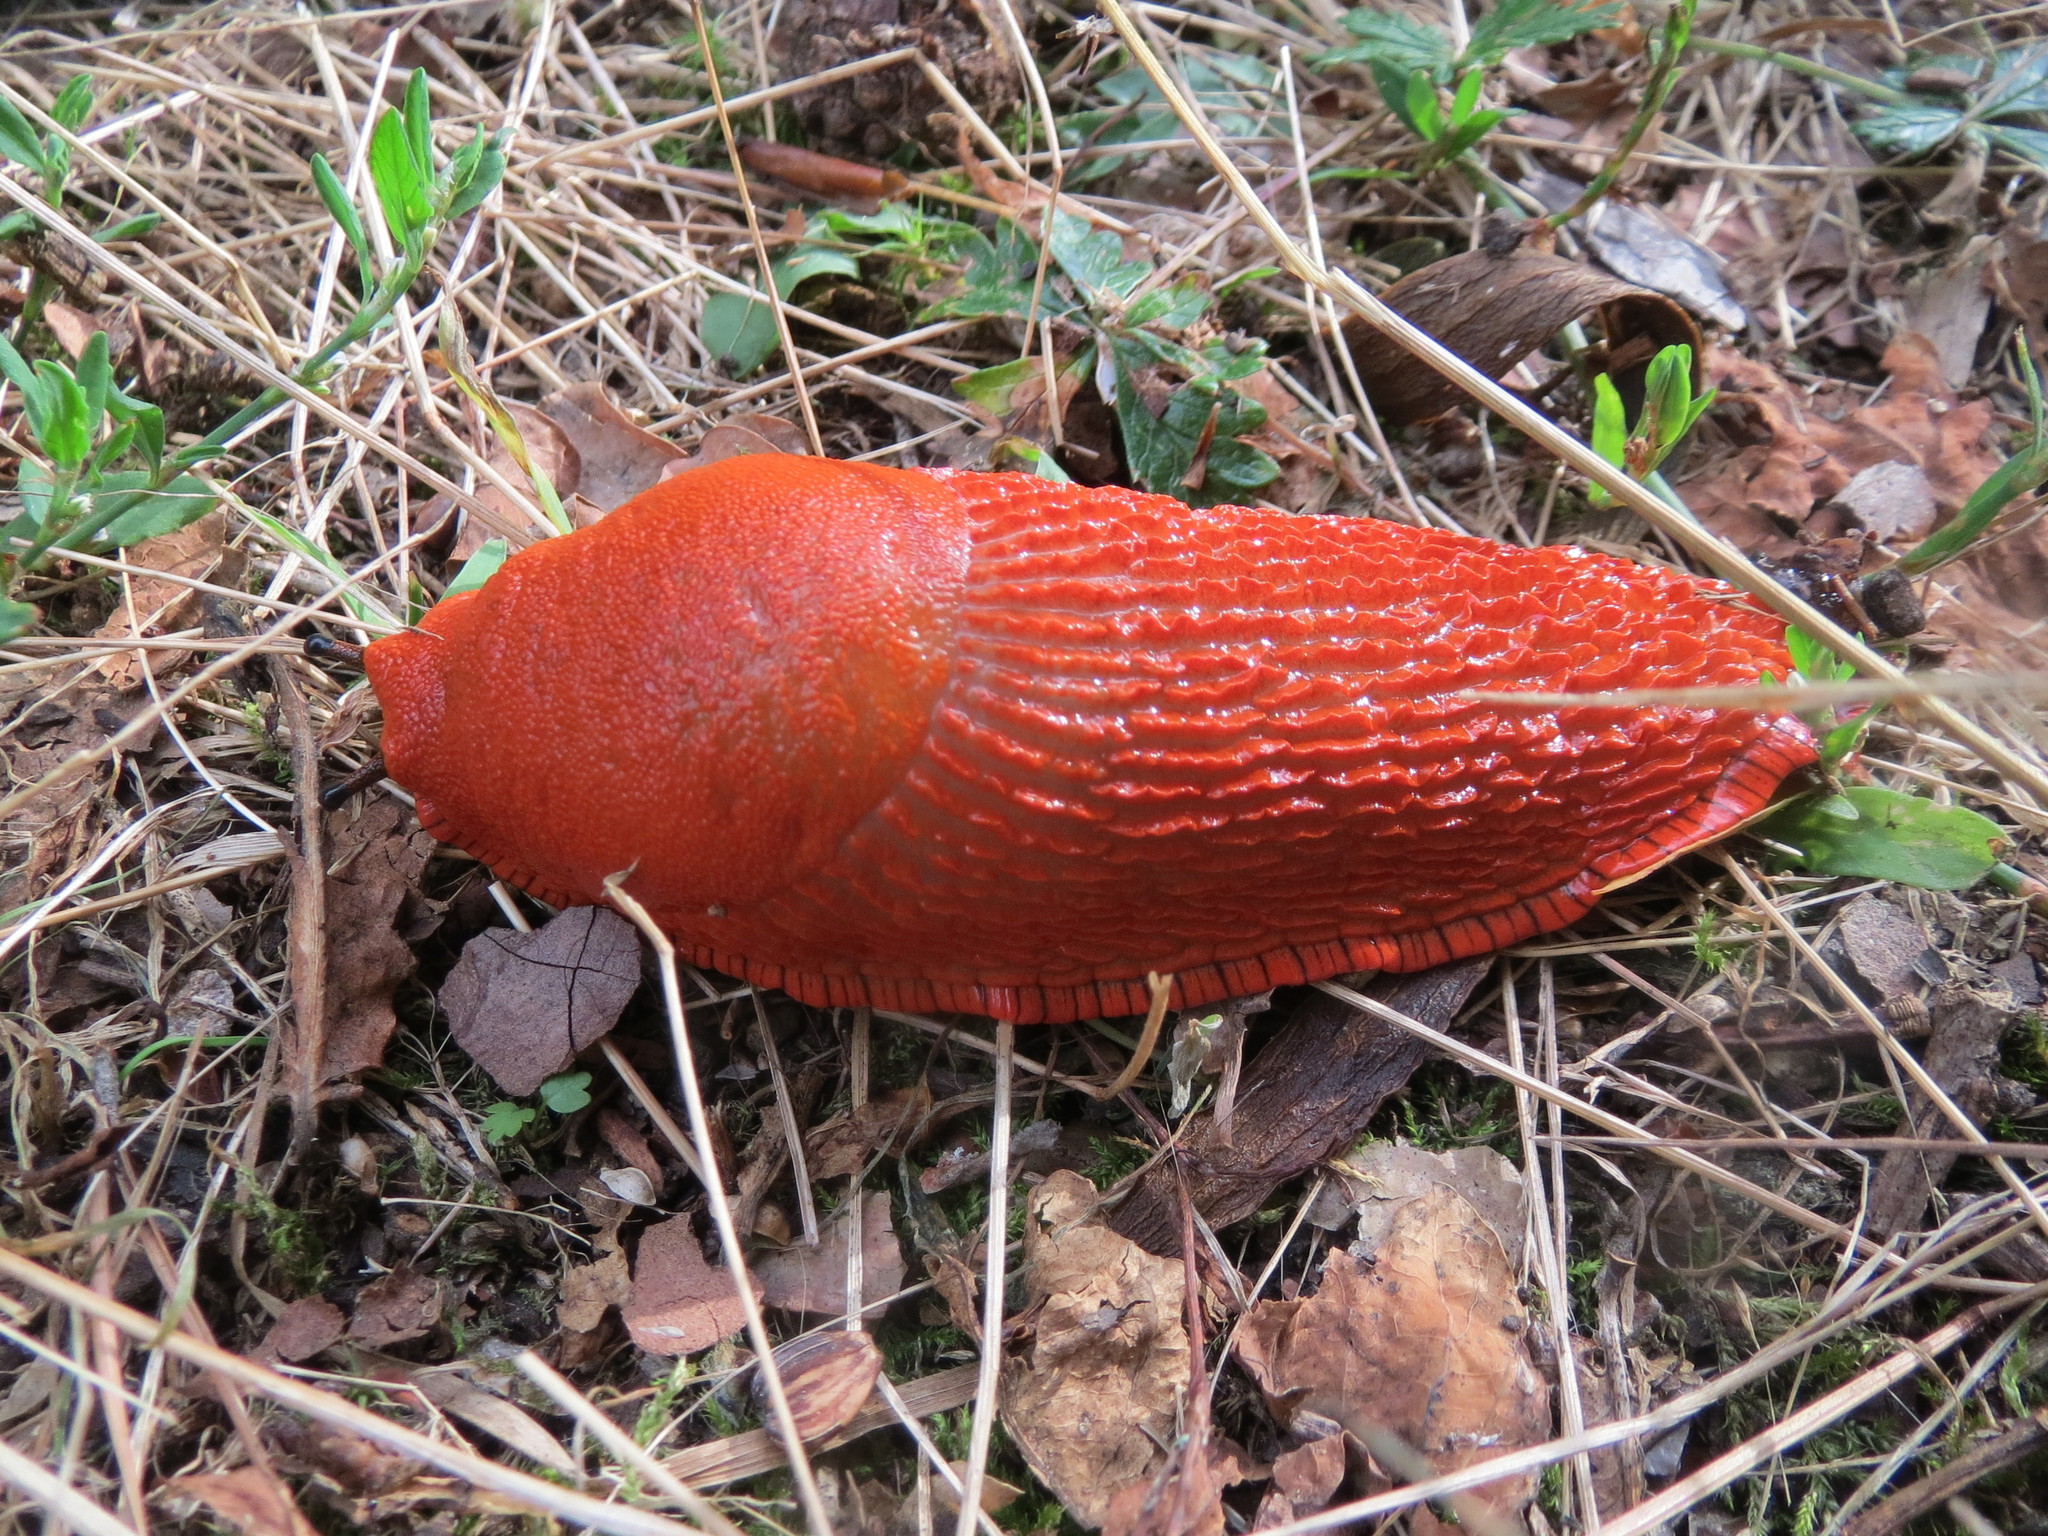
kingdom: Animalia
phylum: Mollusca
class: Gastropoda
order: Stylommatophora
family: Arionidae
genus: Arion
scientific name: Arion rufus
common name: Chocolate arion
